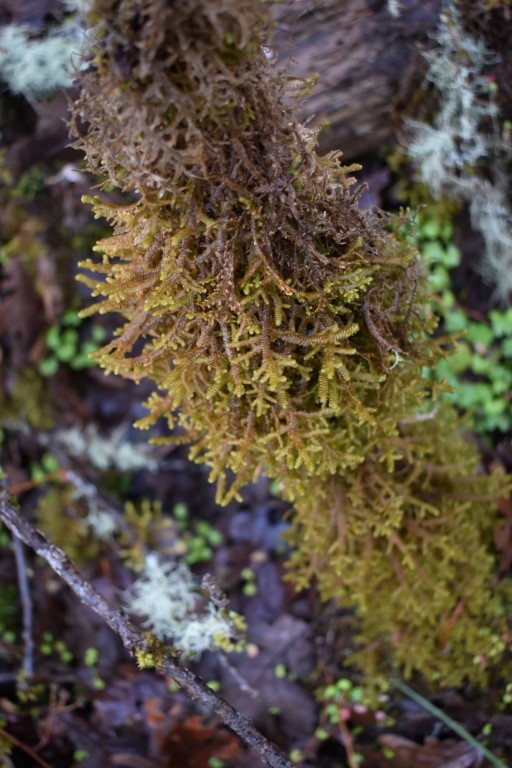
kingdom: Plantae
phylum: Marchantiophyta
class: Jungermanniopsida
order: Porellales
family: Porellaceae
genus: Porella
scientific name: Porella navicularis
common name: Tree ruffle liverwort
